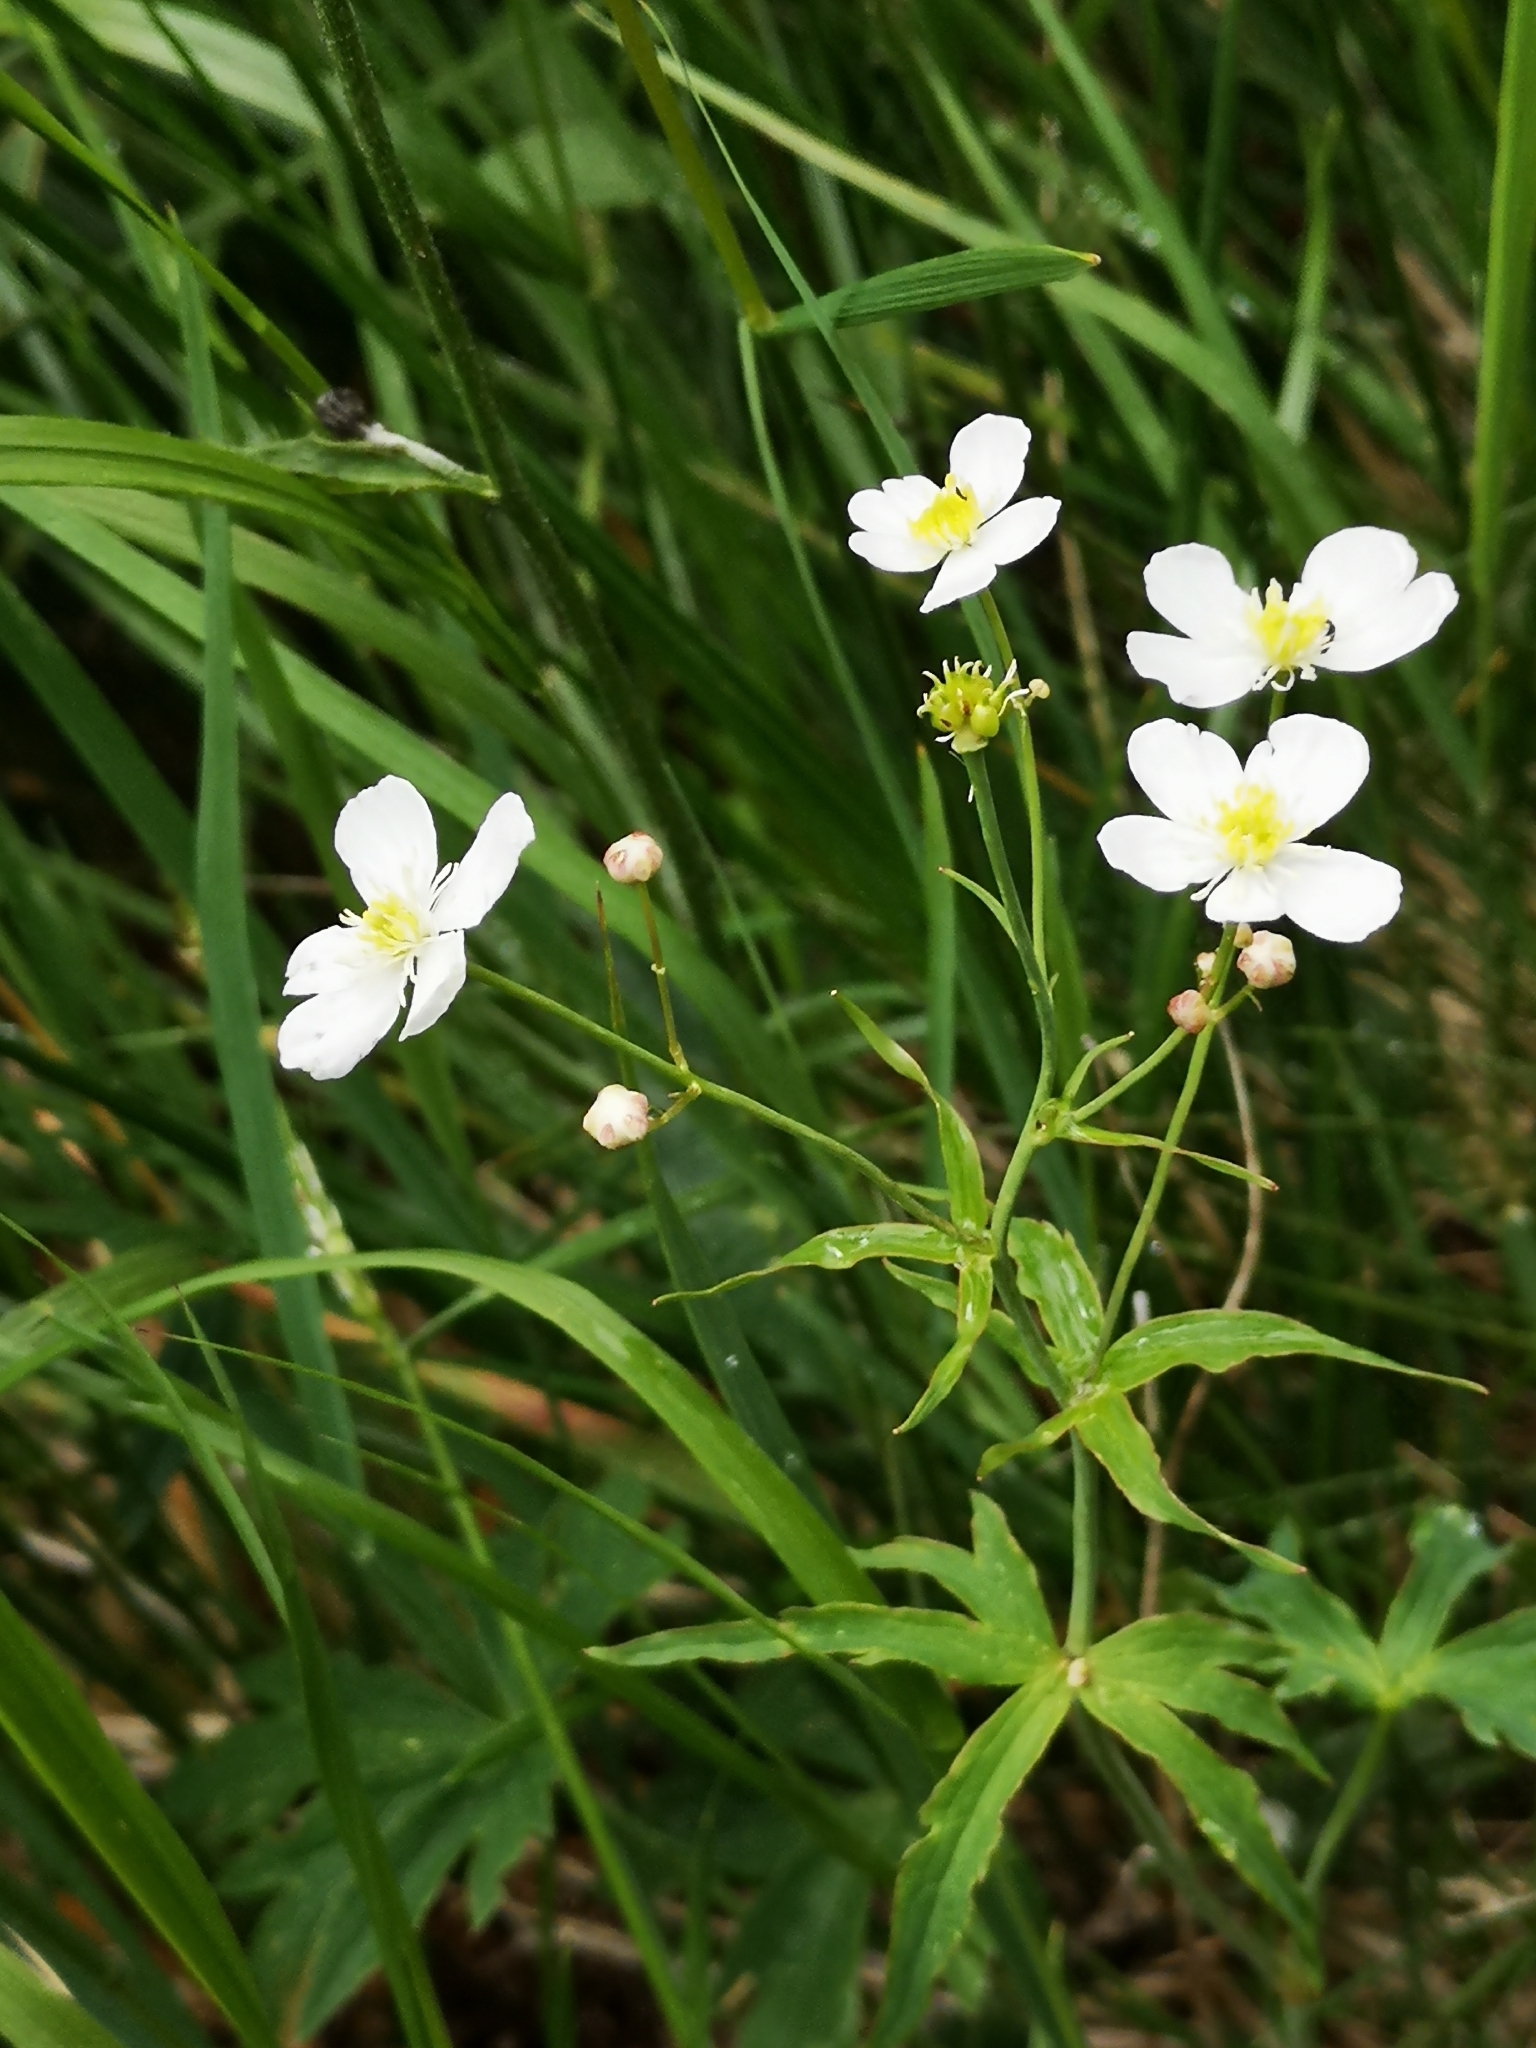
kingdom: Plantae
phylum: Tracheophyta
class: Magnoliopsida
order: Ranunculales
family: Ranunculaceae
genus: Ranunculus
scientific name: Ranunculus platanifolius
